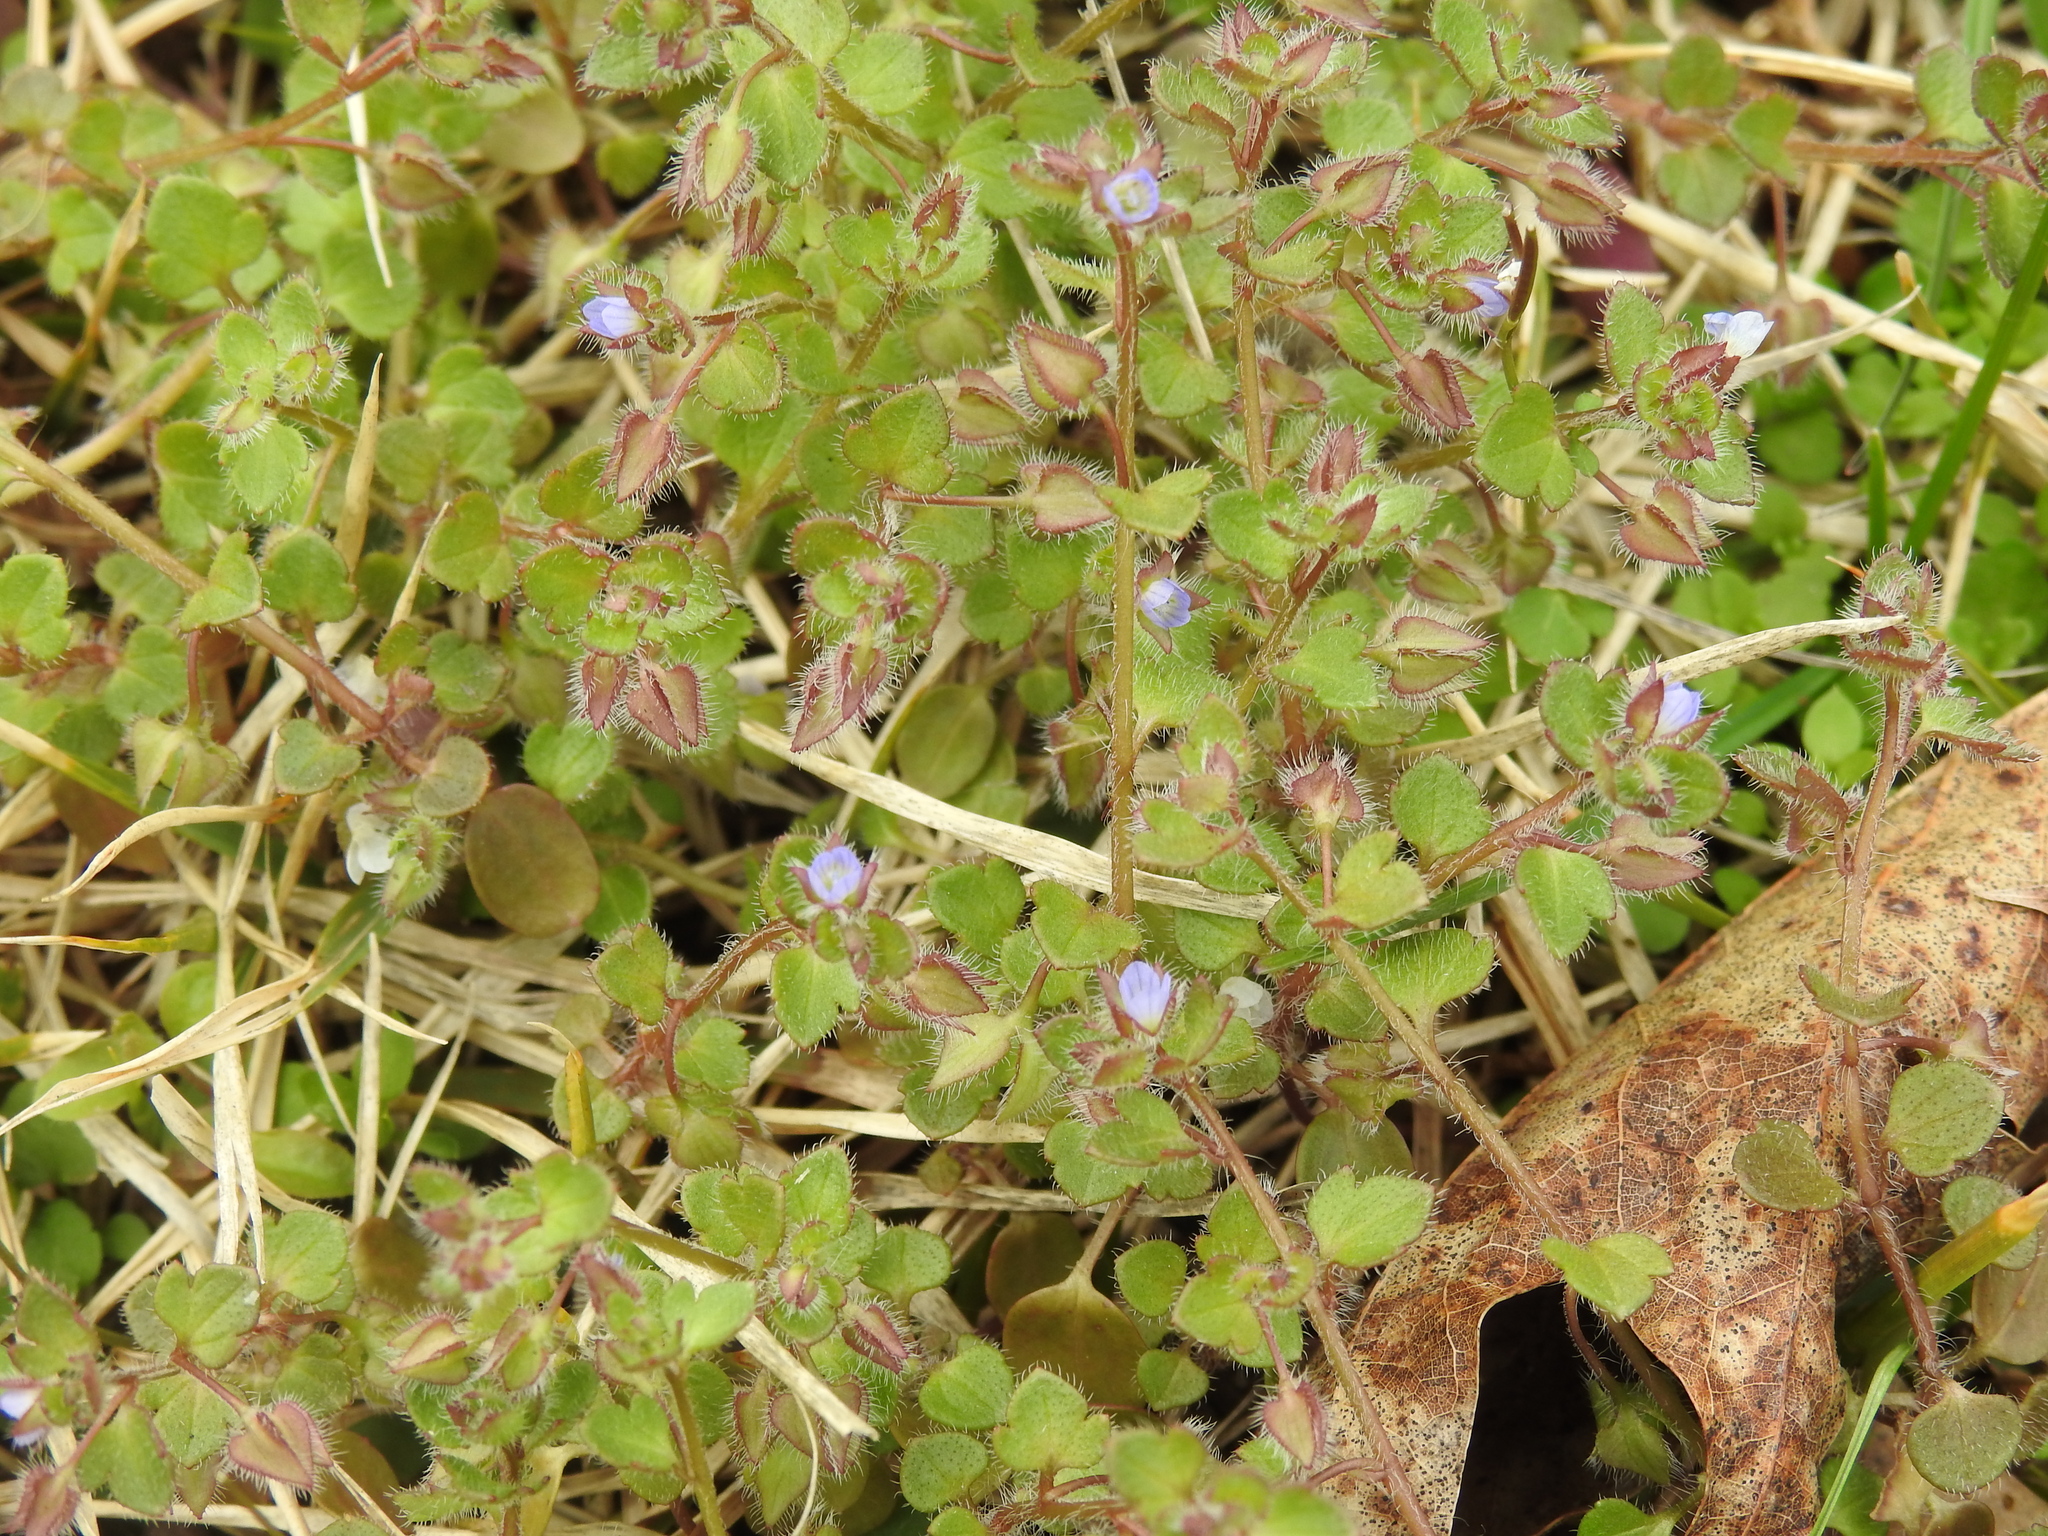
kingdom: Plantae
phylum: Tracheophyta
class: Magnoliopsida
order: Lamiales
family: Plantaginaceae
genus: Veronica
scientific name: Veronica hederifolia
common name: Ivy-leaved speedwell
